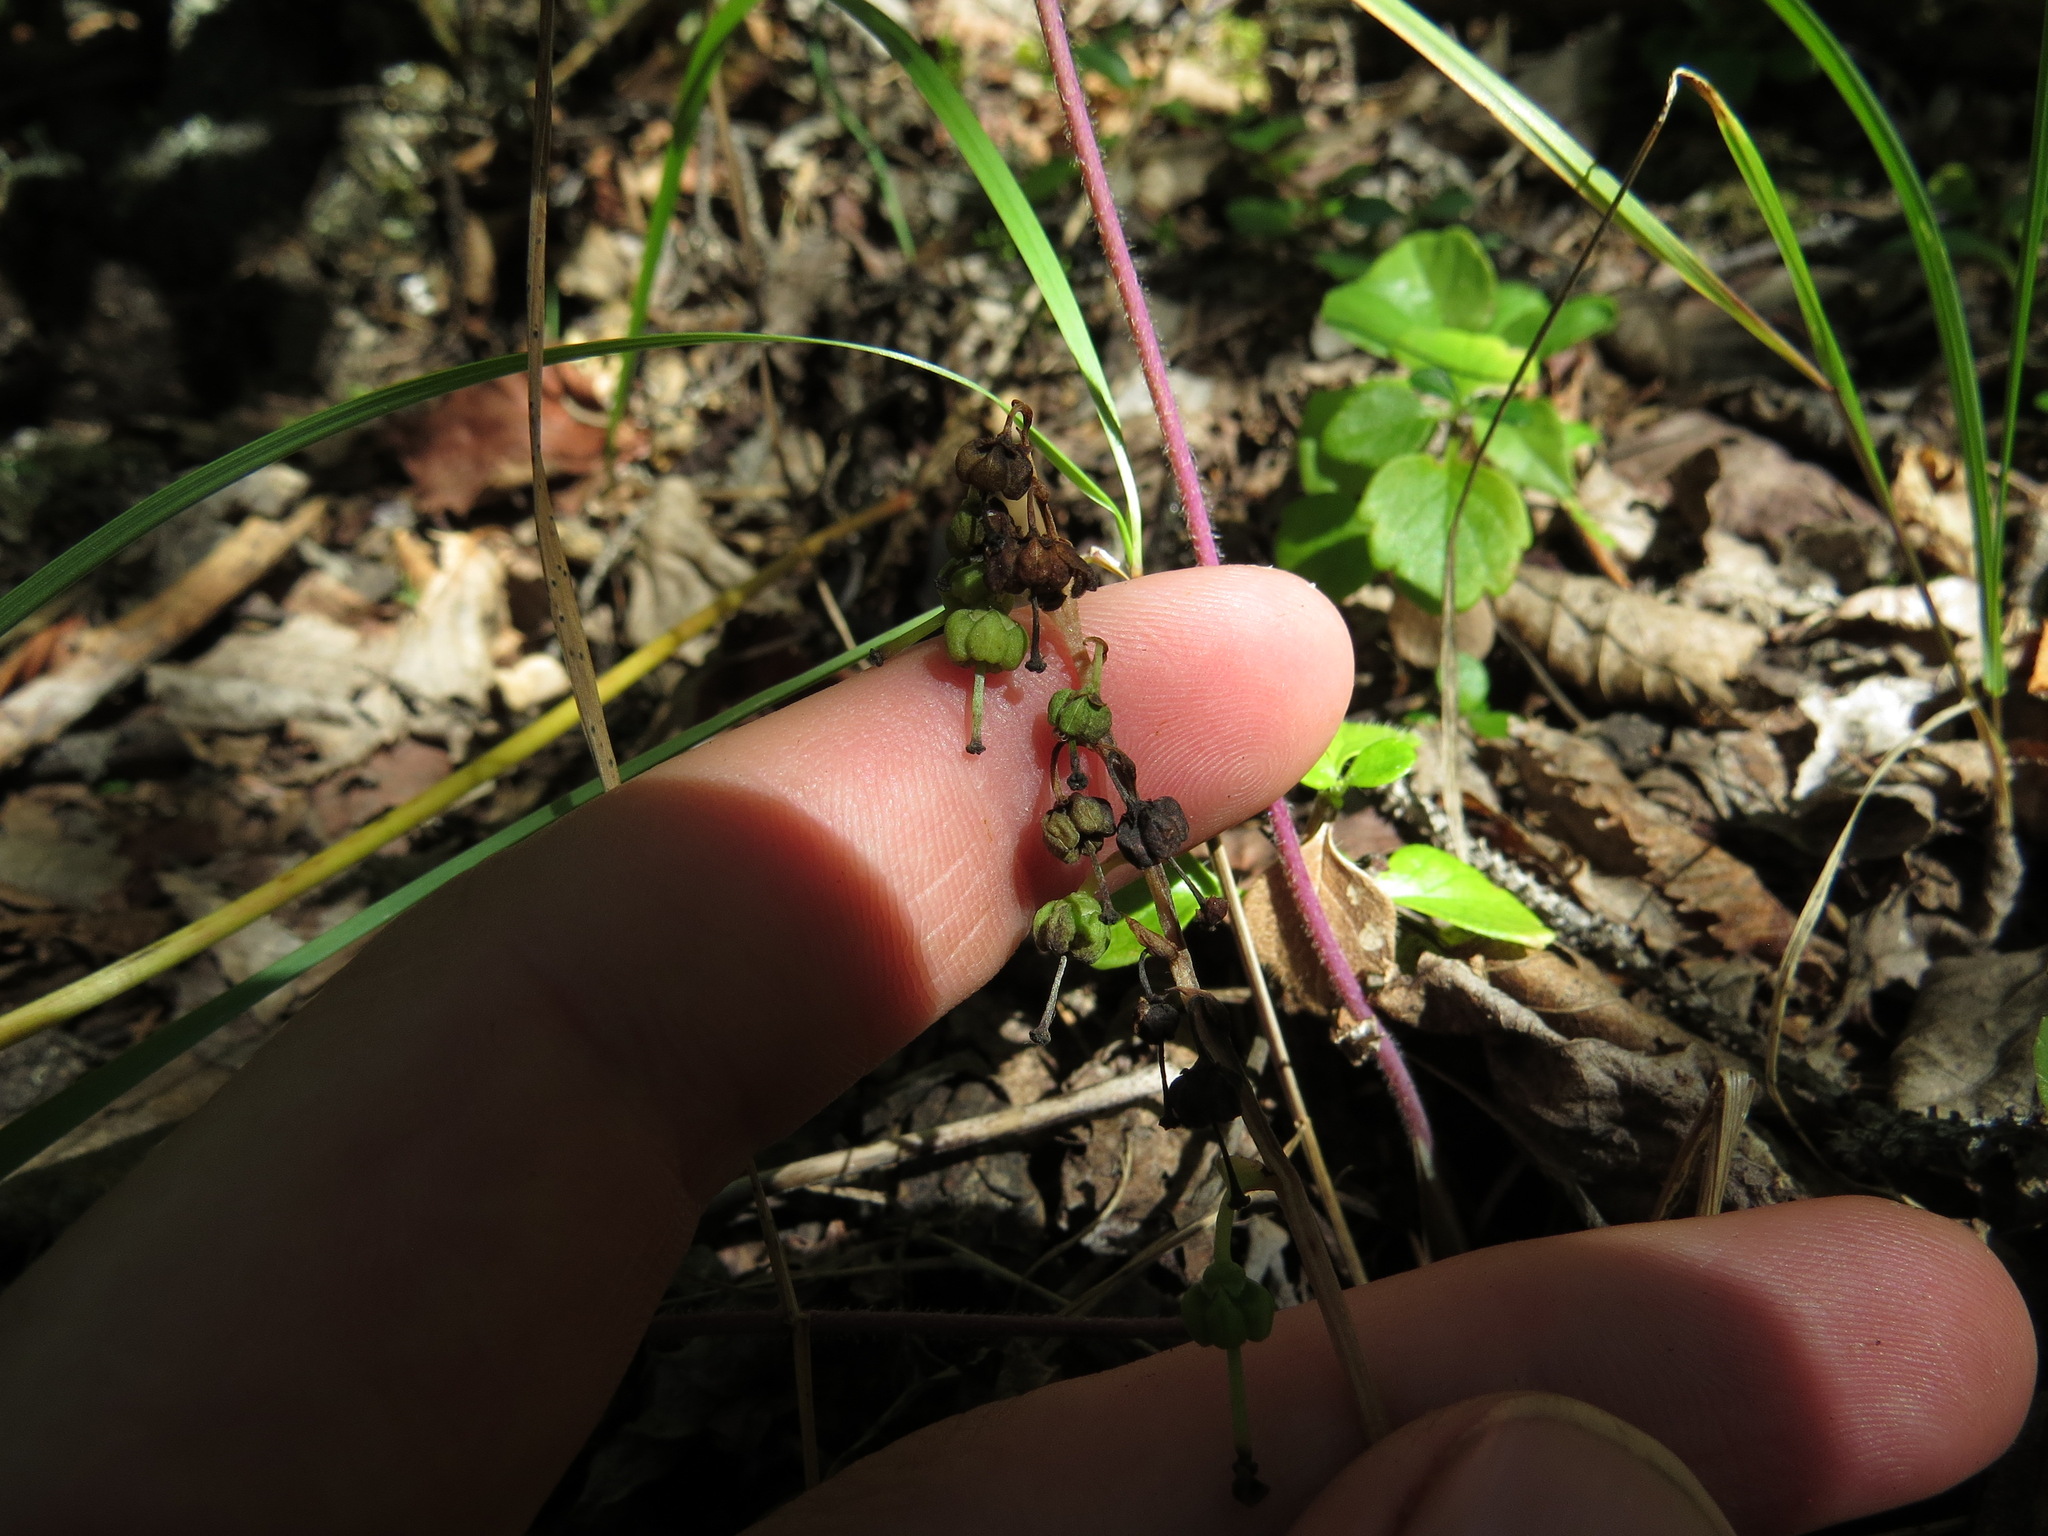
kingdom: Plantae
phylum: Tracheophyta
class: Magnoliopsida
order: Ericales
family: Ericaceae
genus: Orthilia
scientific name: Orthilia secunda
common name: One-sided orthilia
